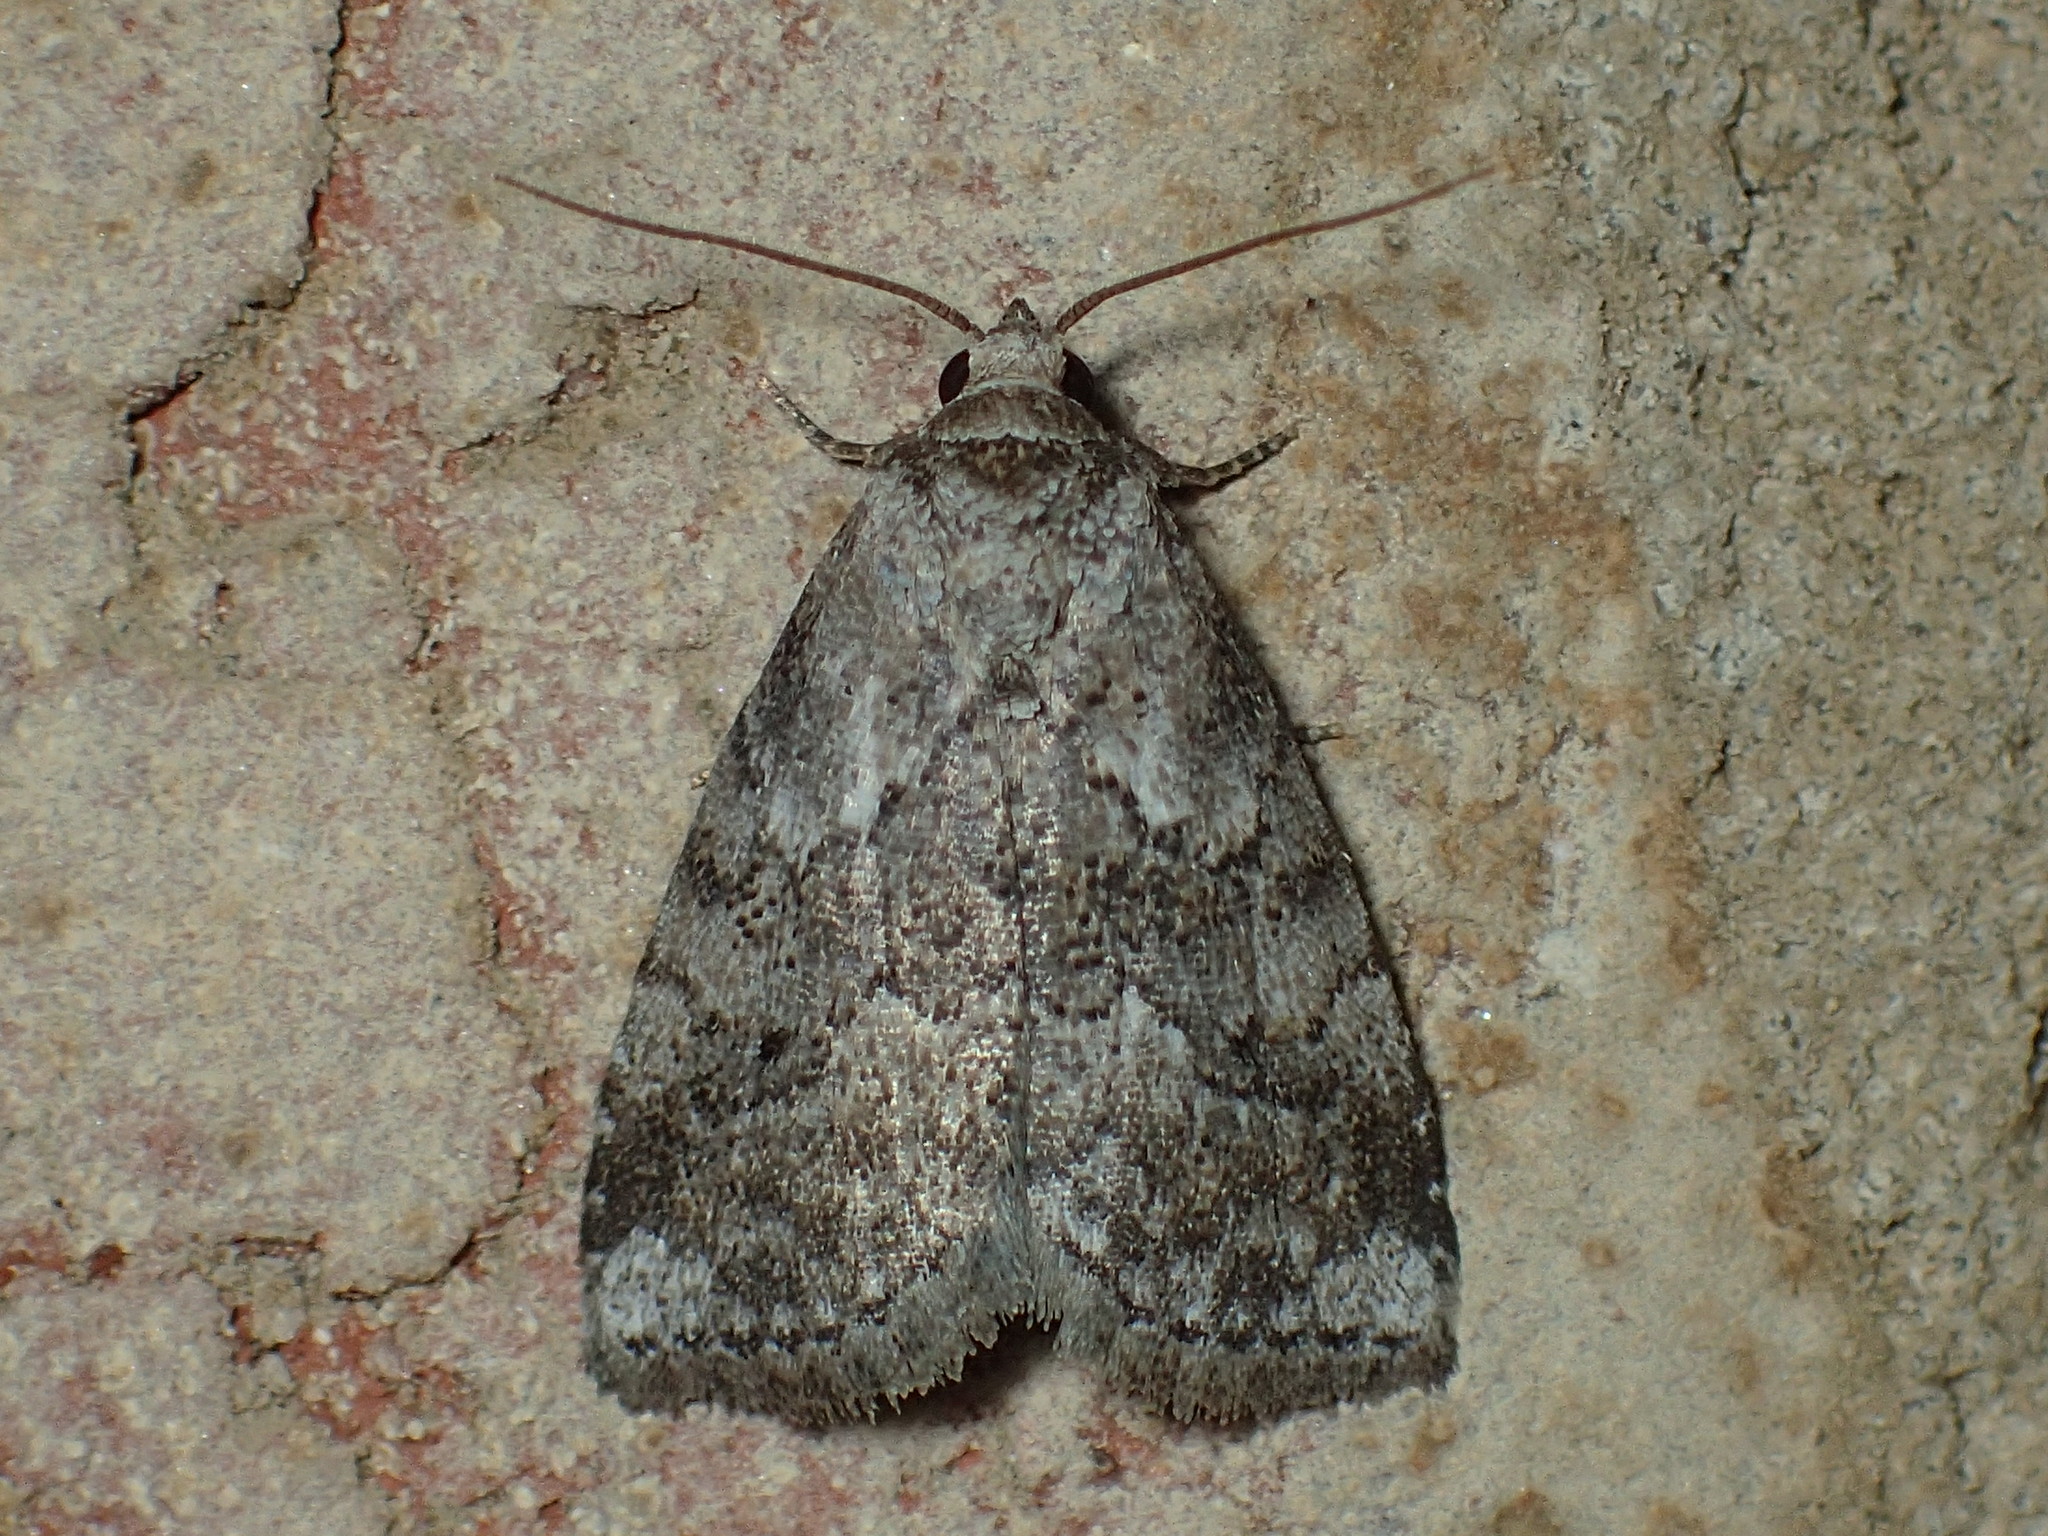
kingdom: Animalia
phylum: Arthropoda
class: Insecta
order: Lepidoptera
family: Erebidae
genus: Hyperstrotia
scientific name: Hyperstrotia nana
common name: White-lined graylet
